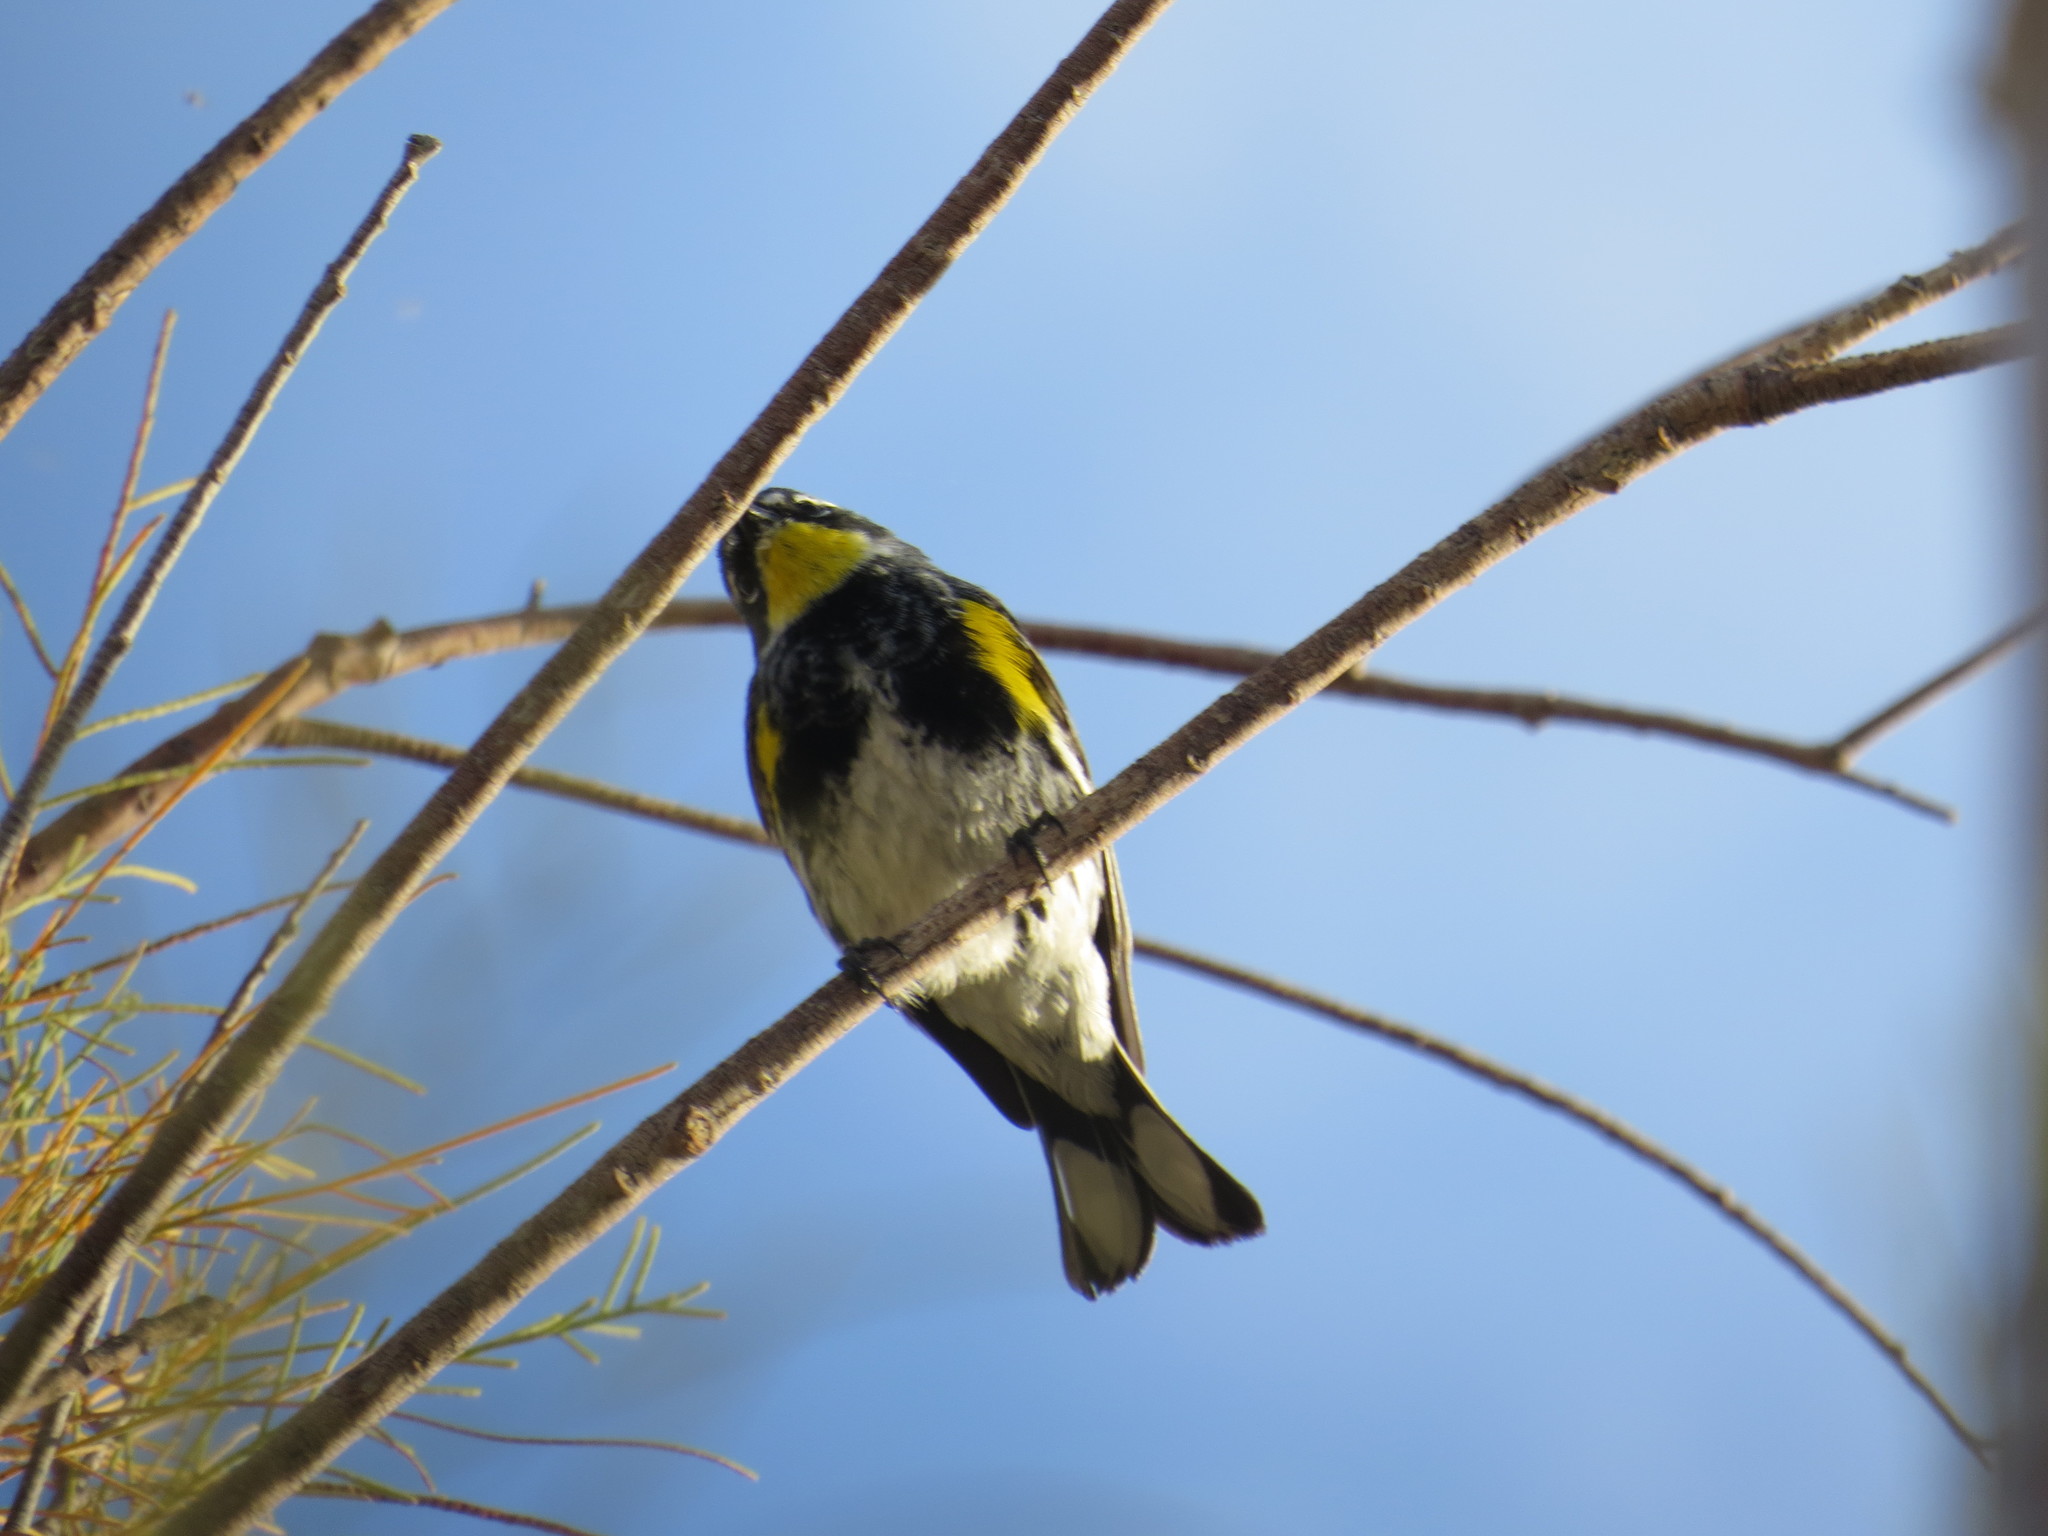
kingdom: Animalia
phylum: Chordata
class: Aves
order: Passeriformes
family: Parulidae
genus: Setophaga
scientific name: Setophaga auduboni
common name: Audubon's warbler
